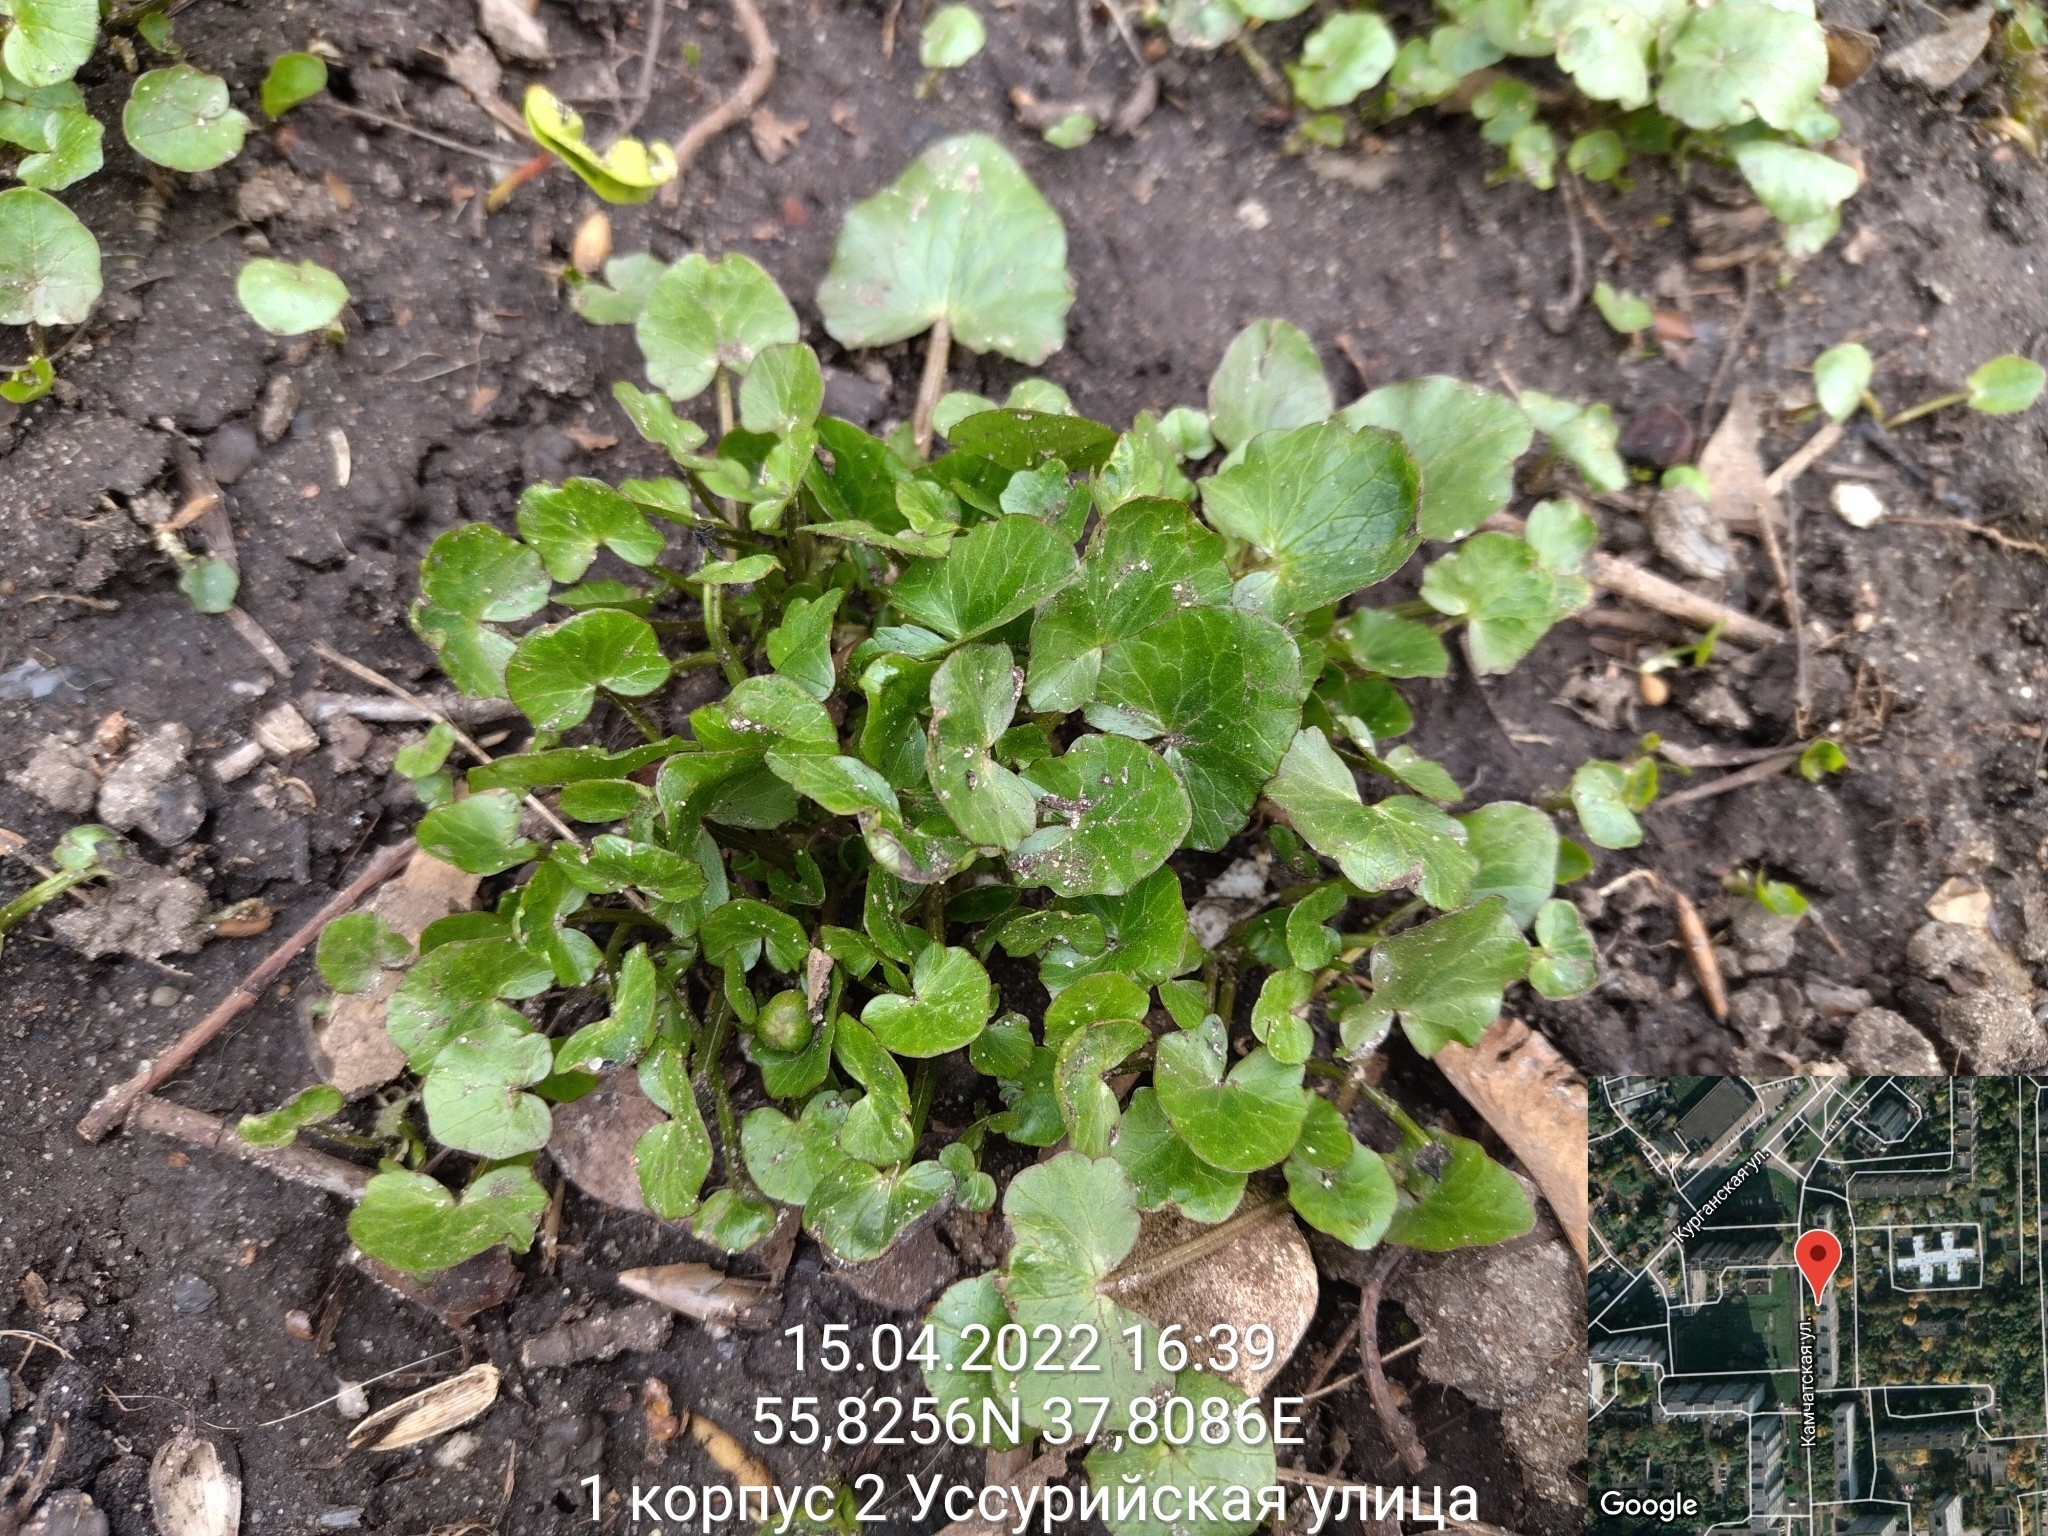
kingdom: Plantae
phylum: Tracheophyta
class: Magnoliopsida
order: Ranunculales
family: Ranunculaceae
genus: Ficaria
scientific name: Ficaria verna
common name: Lesser celandine
